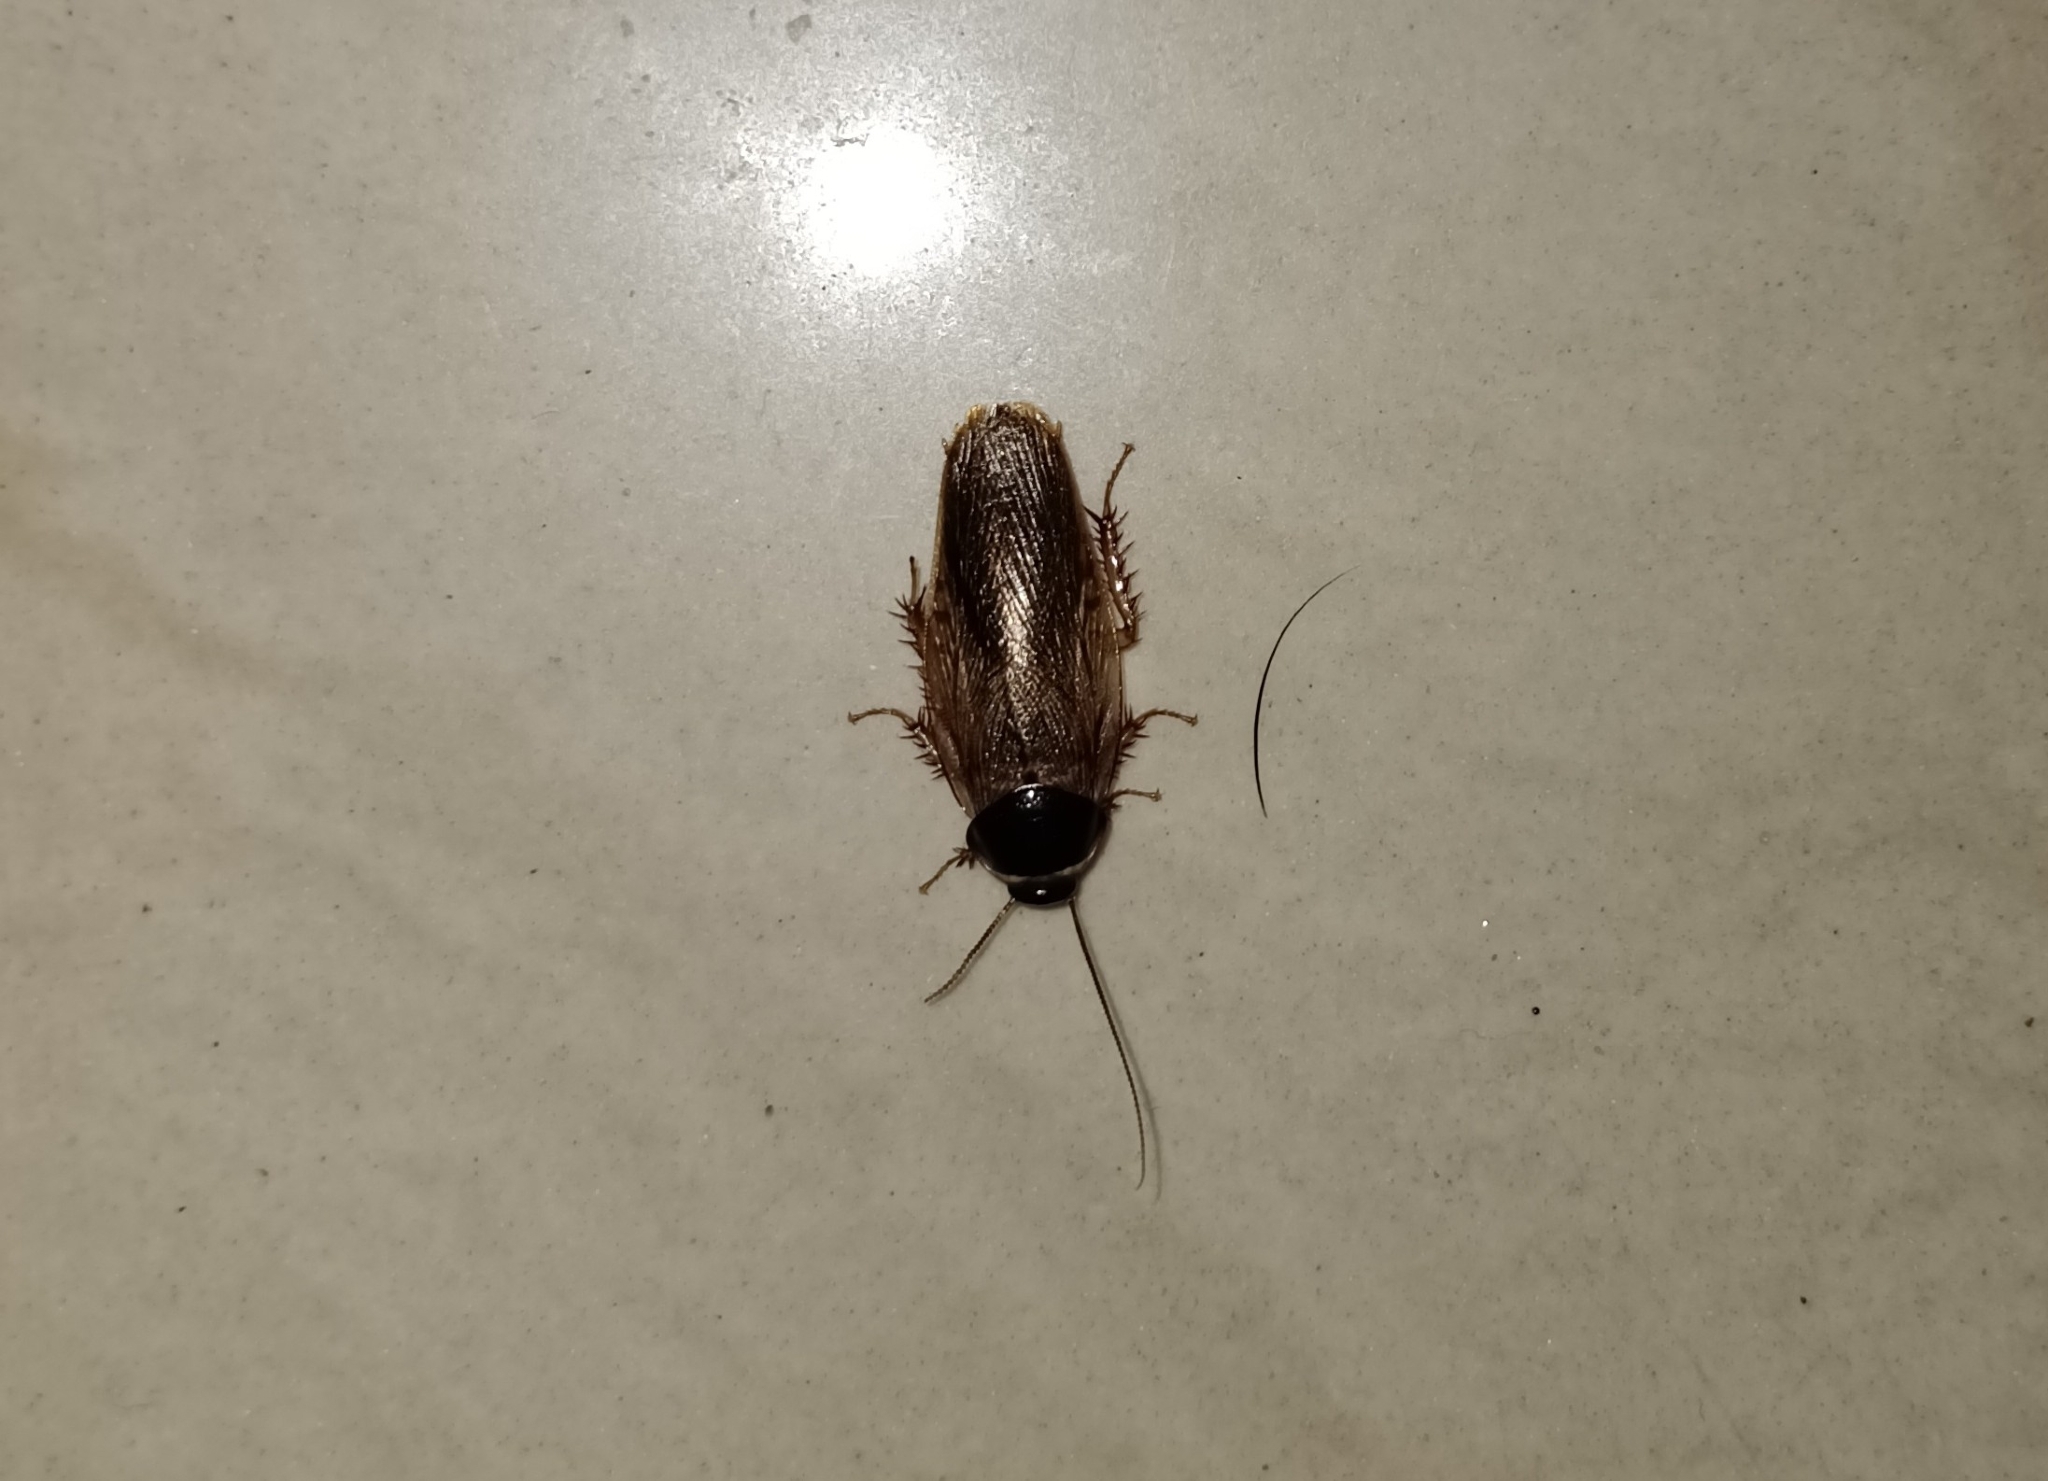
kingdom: Animalia
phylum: Arthropoda
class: Insecta
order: Blattodea
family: Blaberidae
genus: Pycnoscelus
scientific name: Pycnoscelus indicus
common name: Burrowing cockroach
